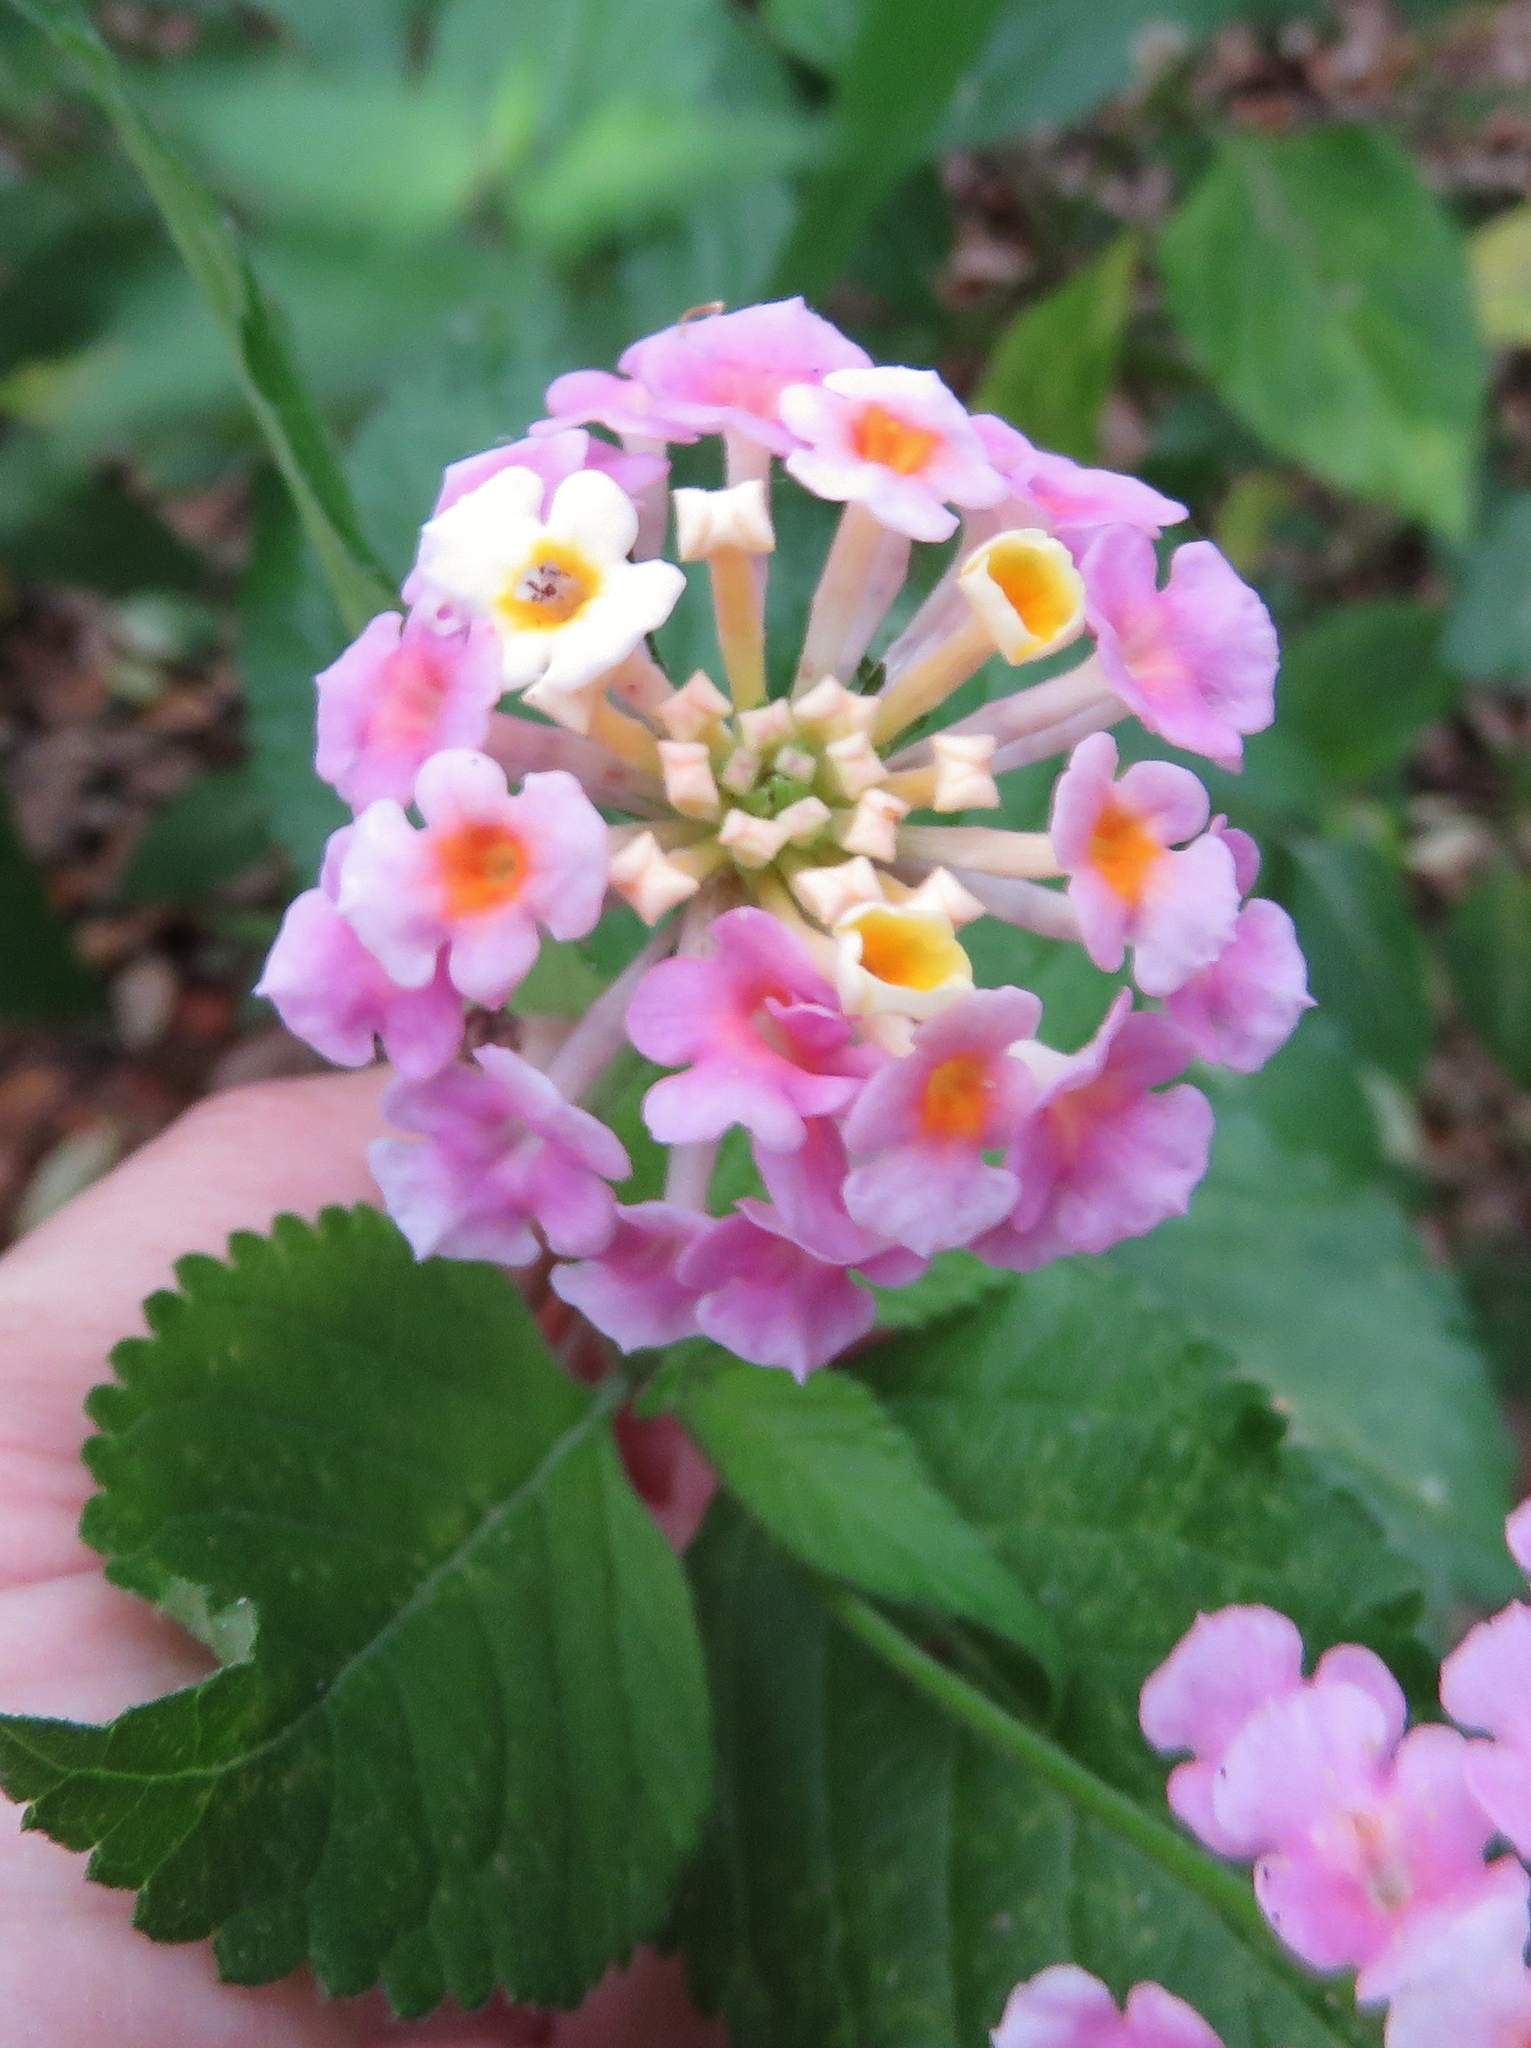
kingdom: Plantae
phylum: Tracheophyta
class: Magnoliopsida
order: Lamiales
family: Verbenaceae
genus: Lantana
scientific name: Lantana strigocamara
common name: Lantana
